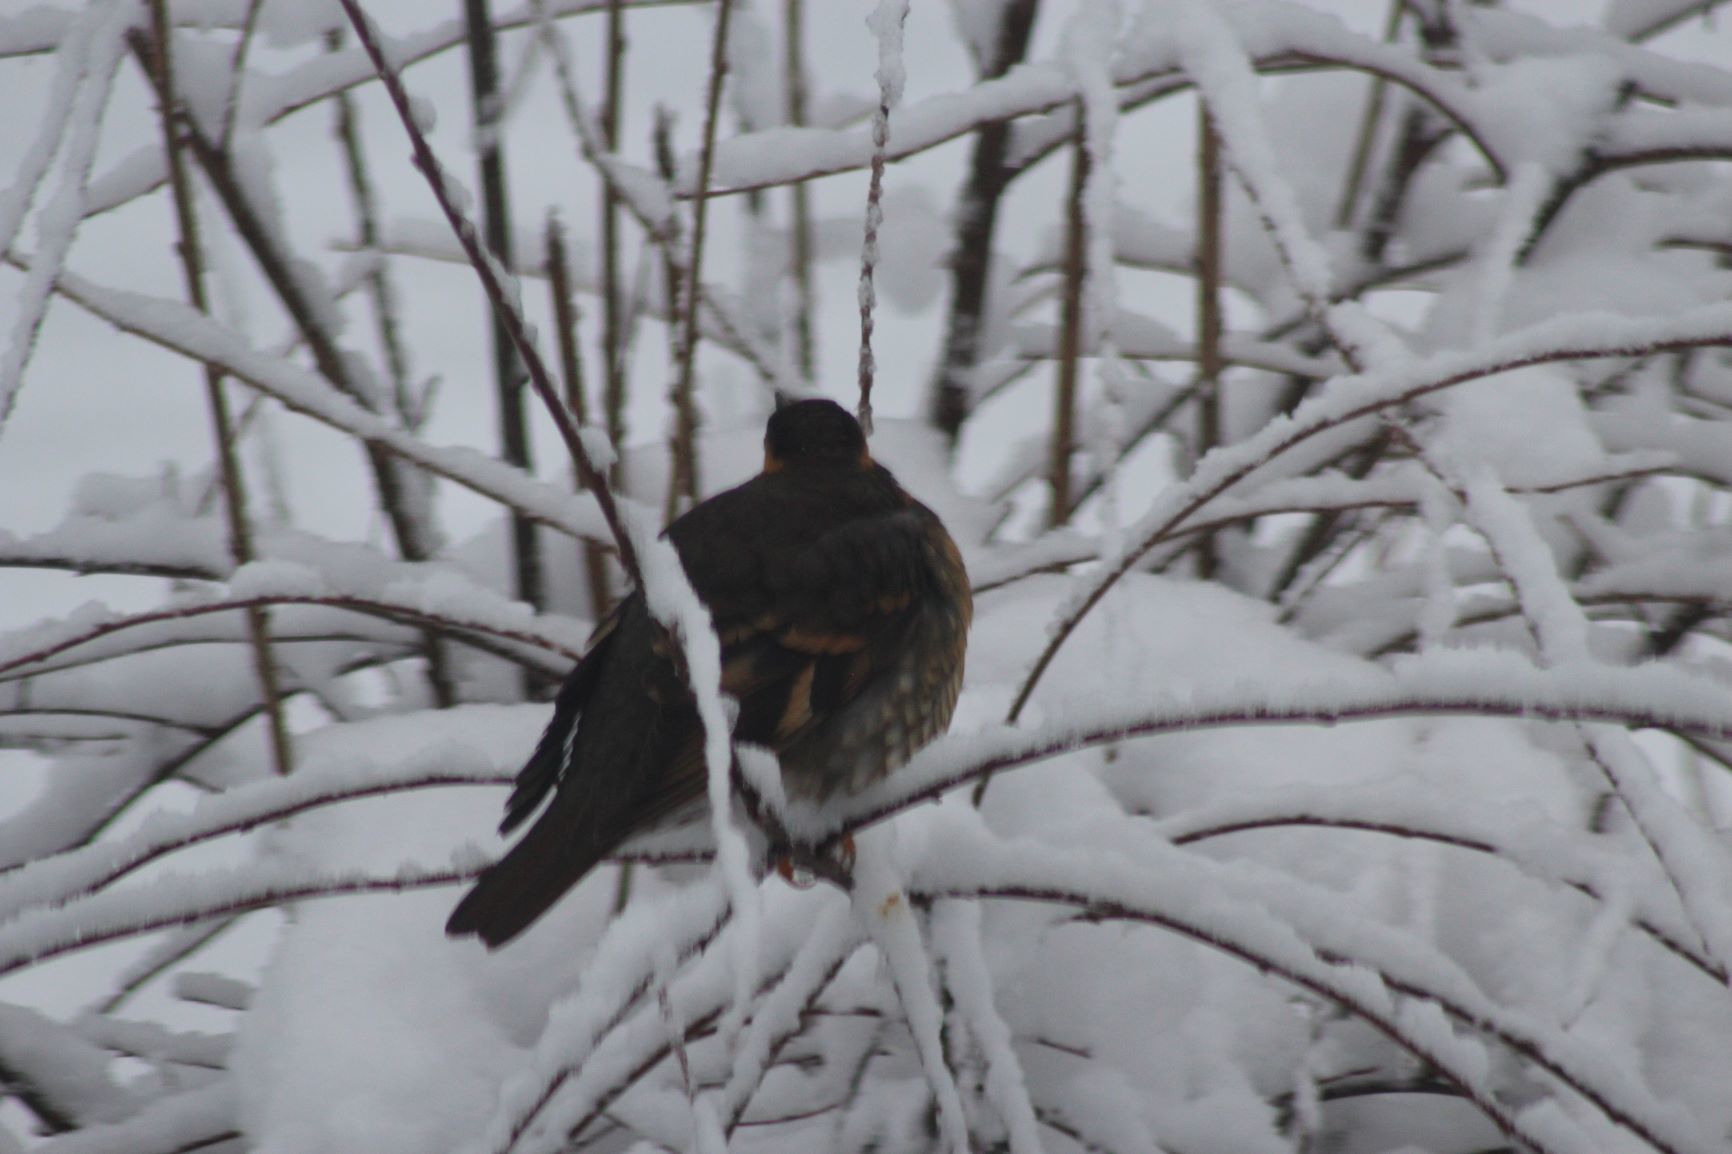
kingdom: Animalia
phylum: Chordata
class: Aves
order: Passeriformes
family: Turdidae
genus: Ixoreus
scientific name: Ixoreus naevius
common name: Varied thrush
